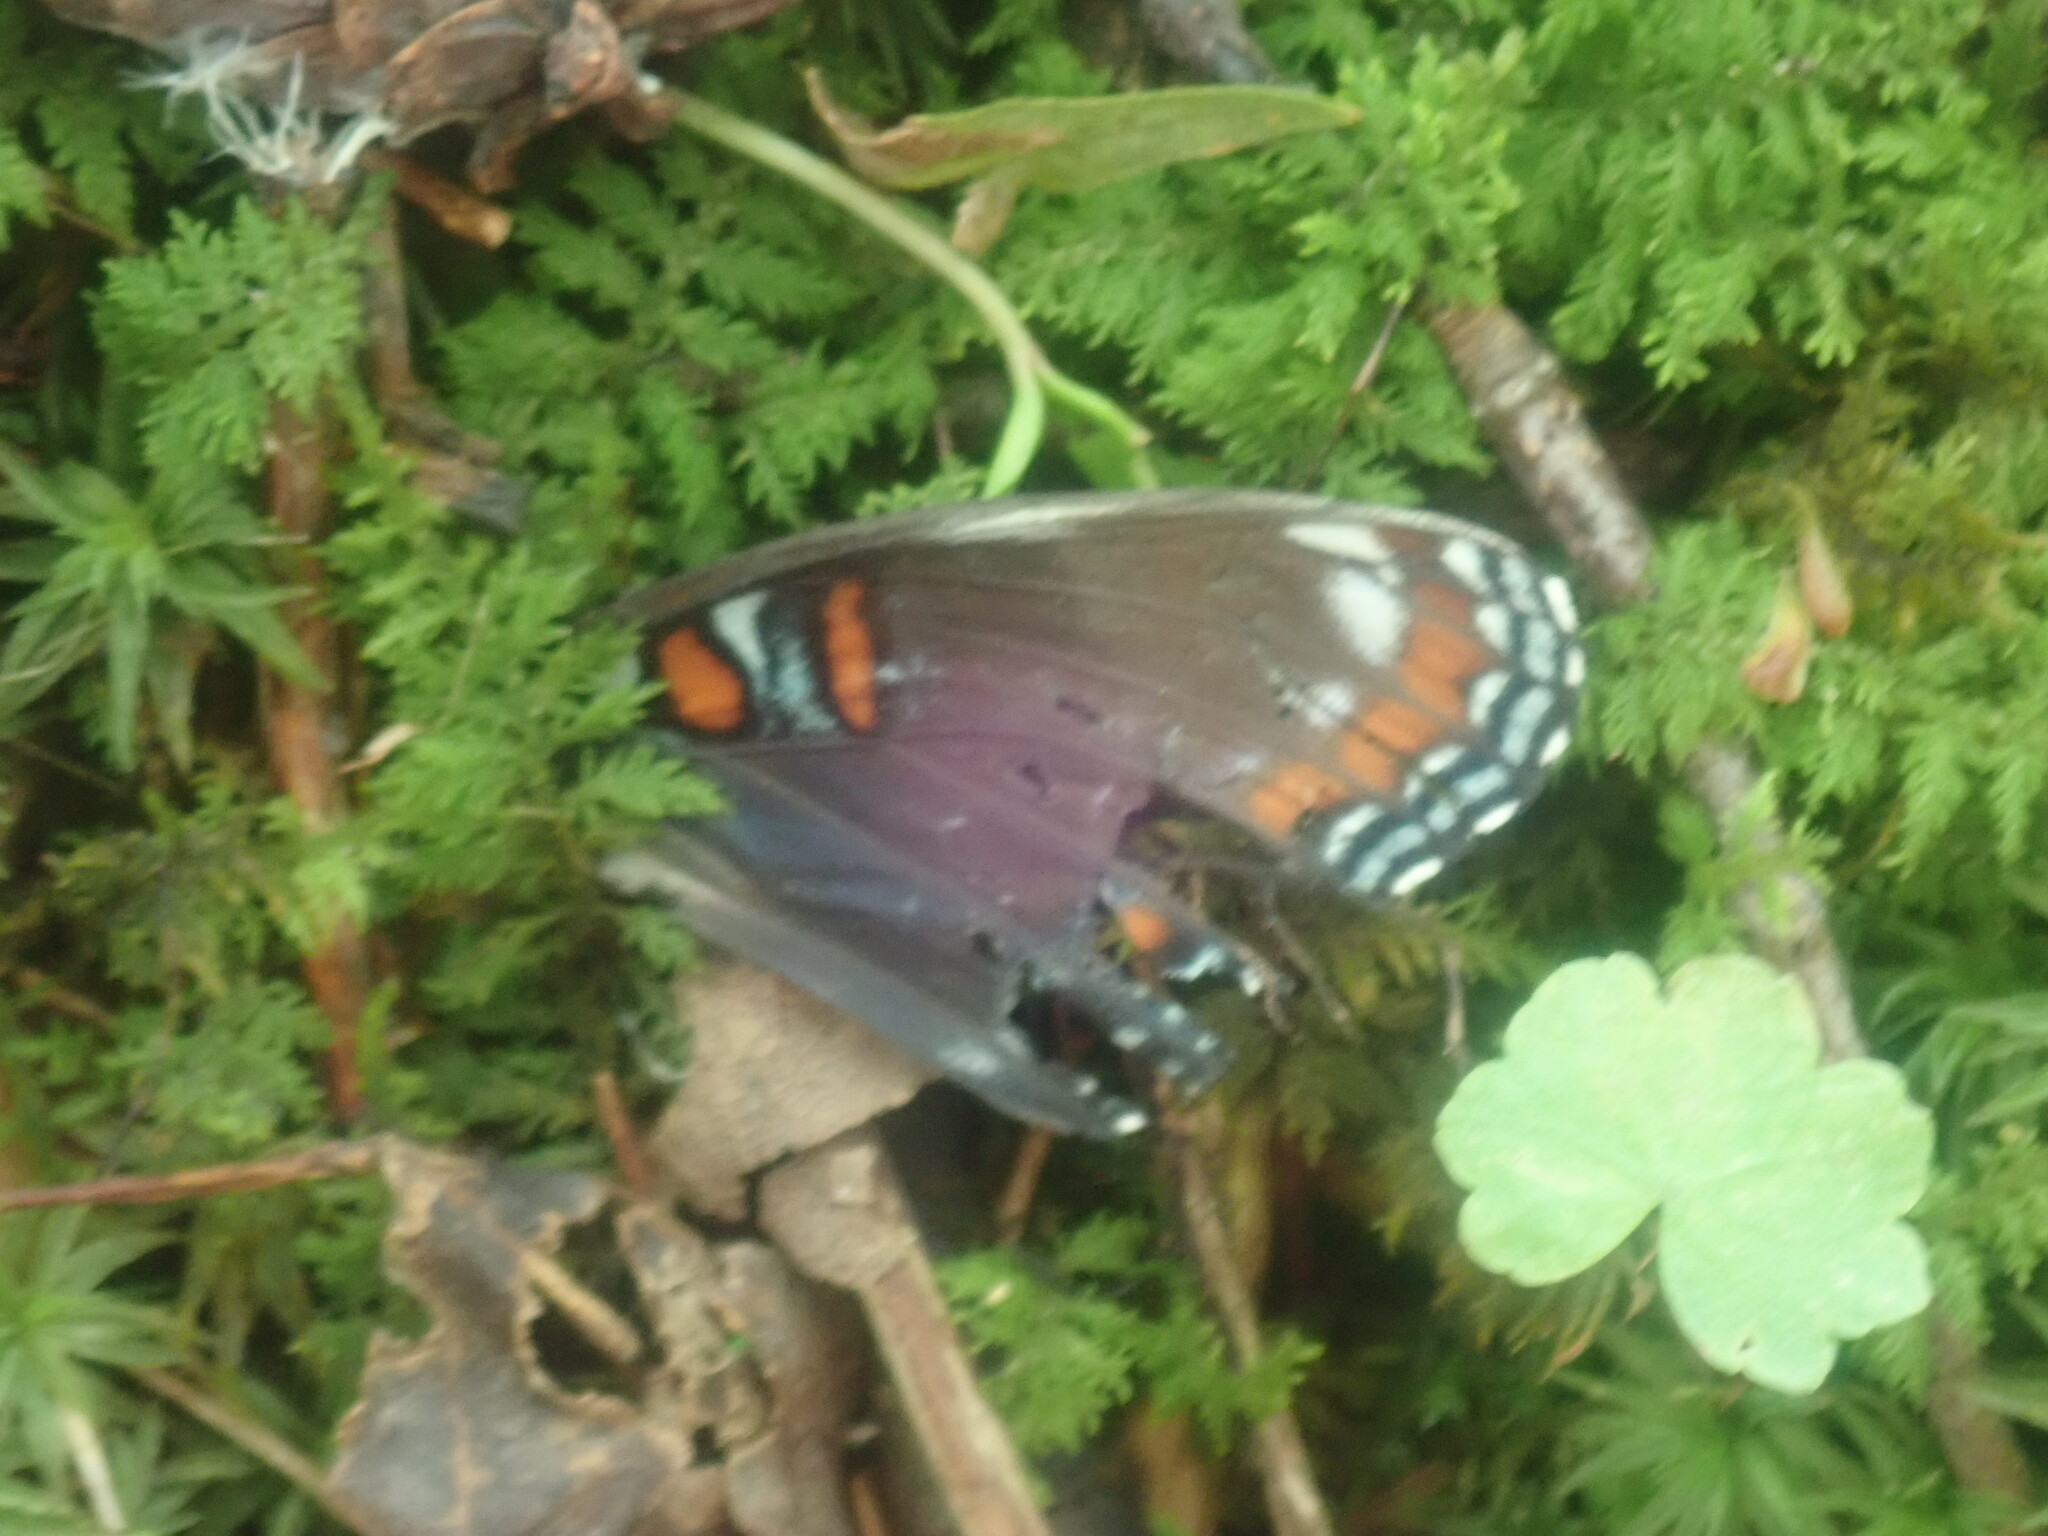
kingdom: Animalia
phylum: Arthropoda
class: Insecta
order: Lepidoptera
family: Nymphalidae
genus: Limenitis
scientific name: Limenitis arthemis
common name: Red-spotted admiral
